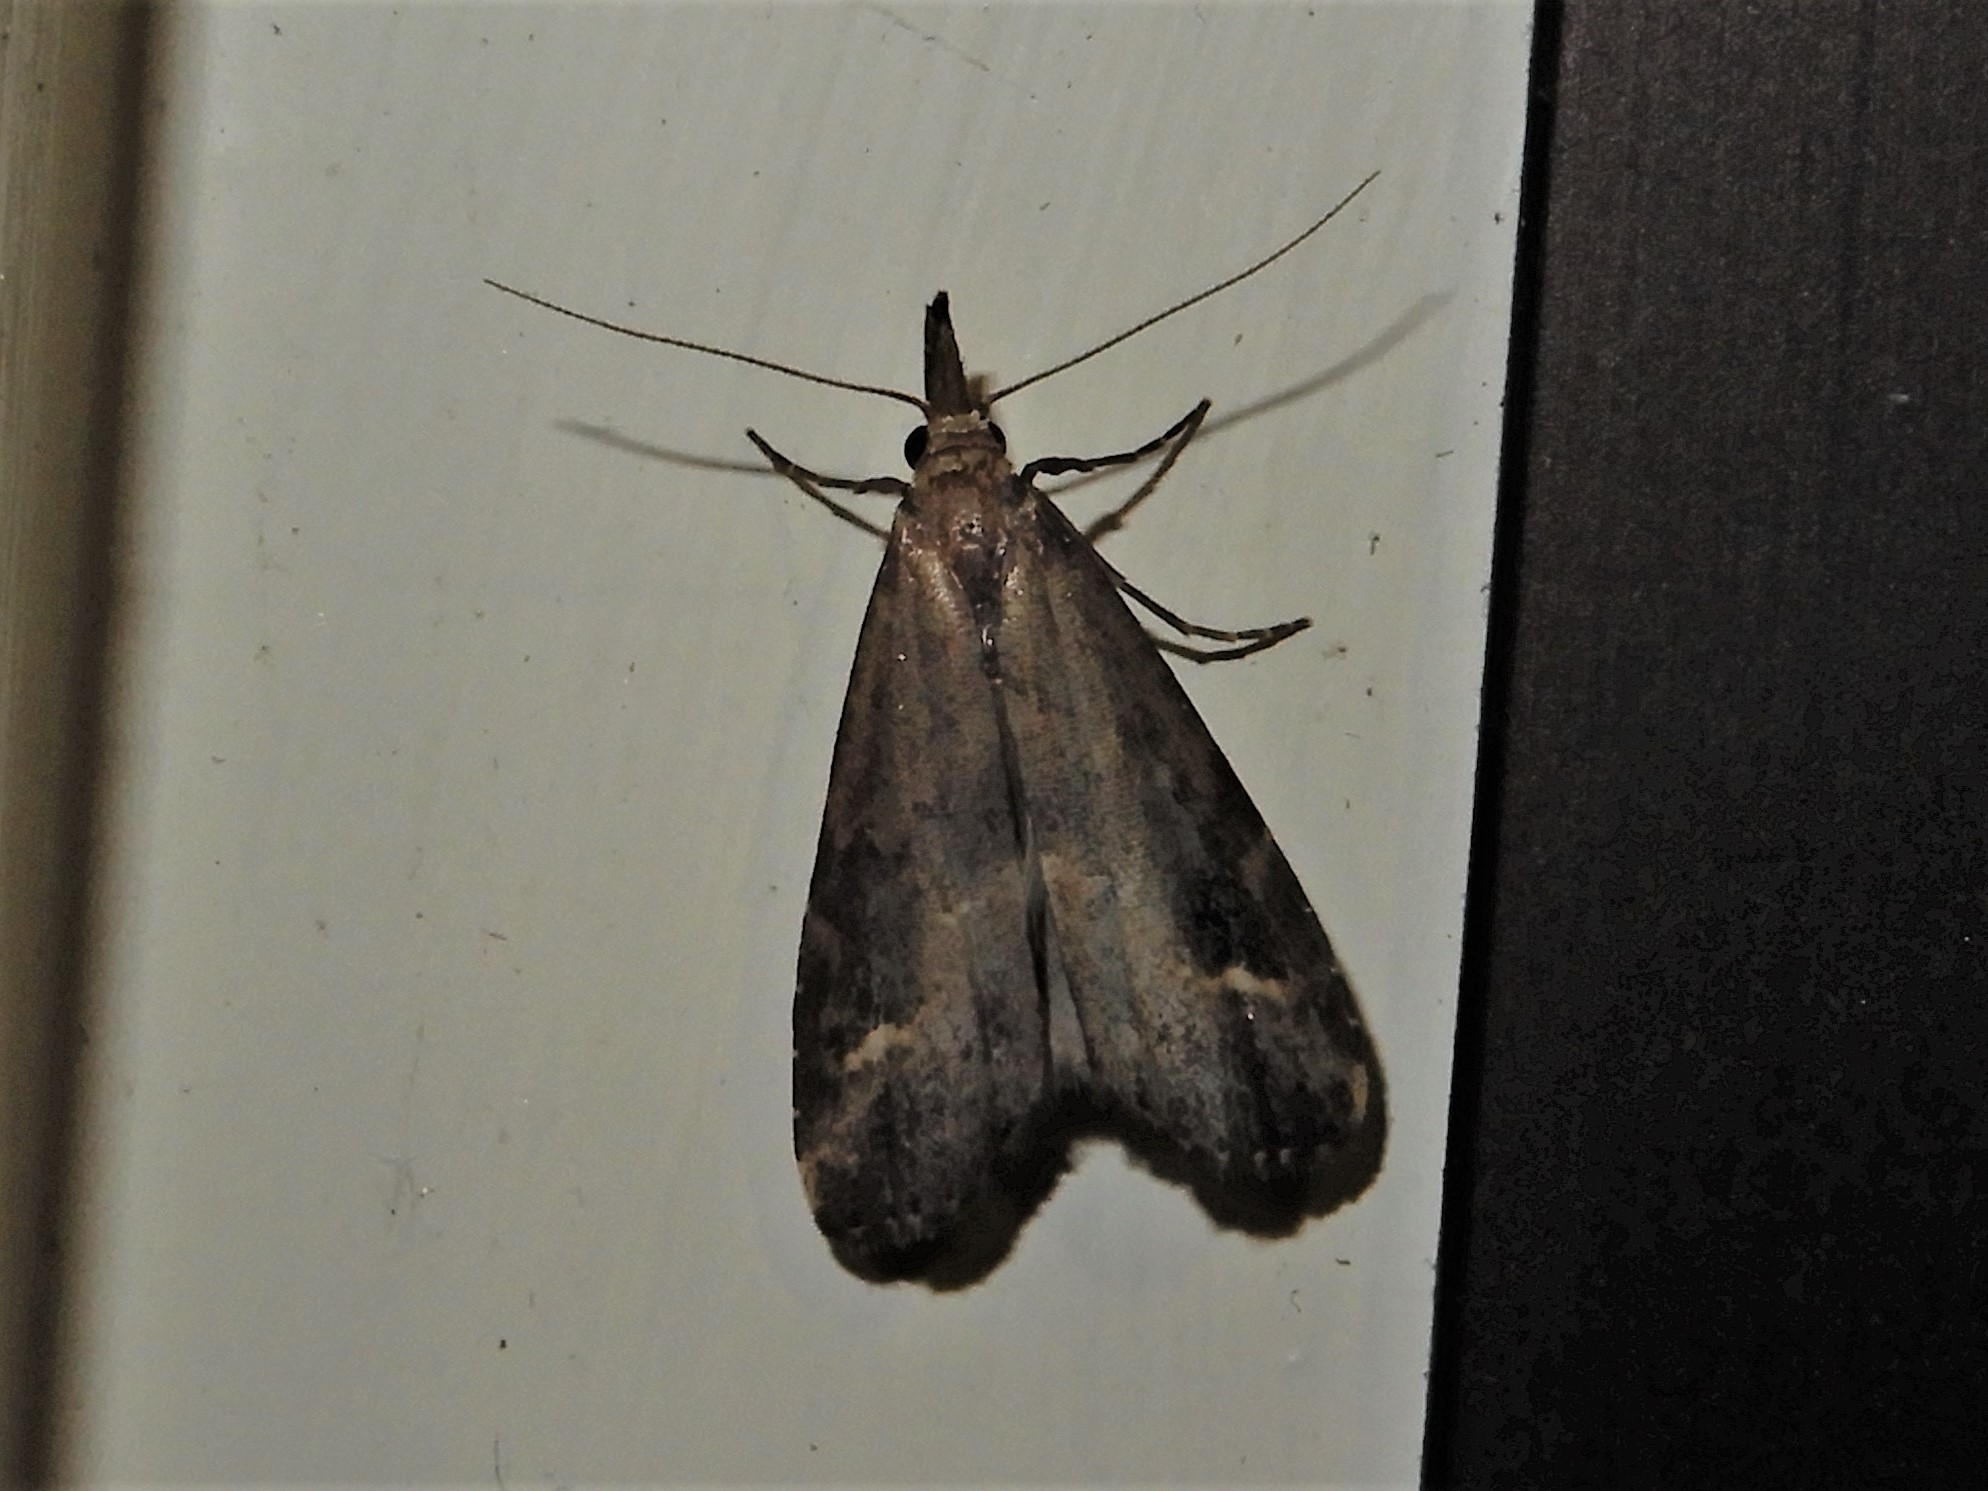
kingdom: Animalia
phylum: Arthropoda
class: Insecta
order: Lepidoptera
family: Erebidae
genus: Schrankia
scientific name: Schrankia costaestrigalis
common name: Pinion-streaked snout
